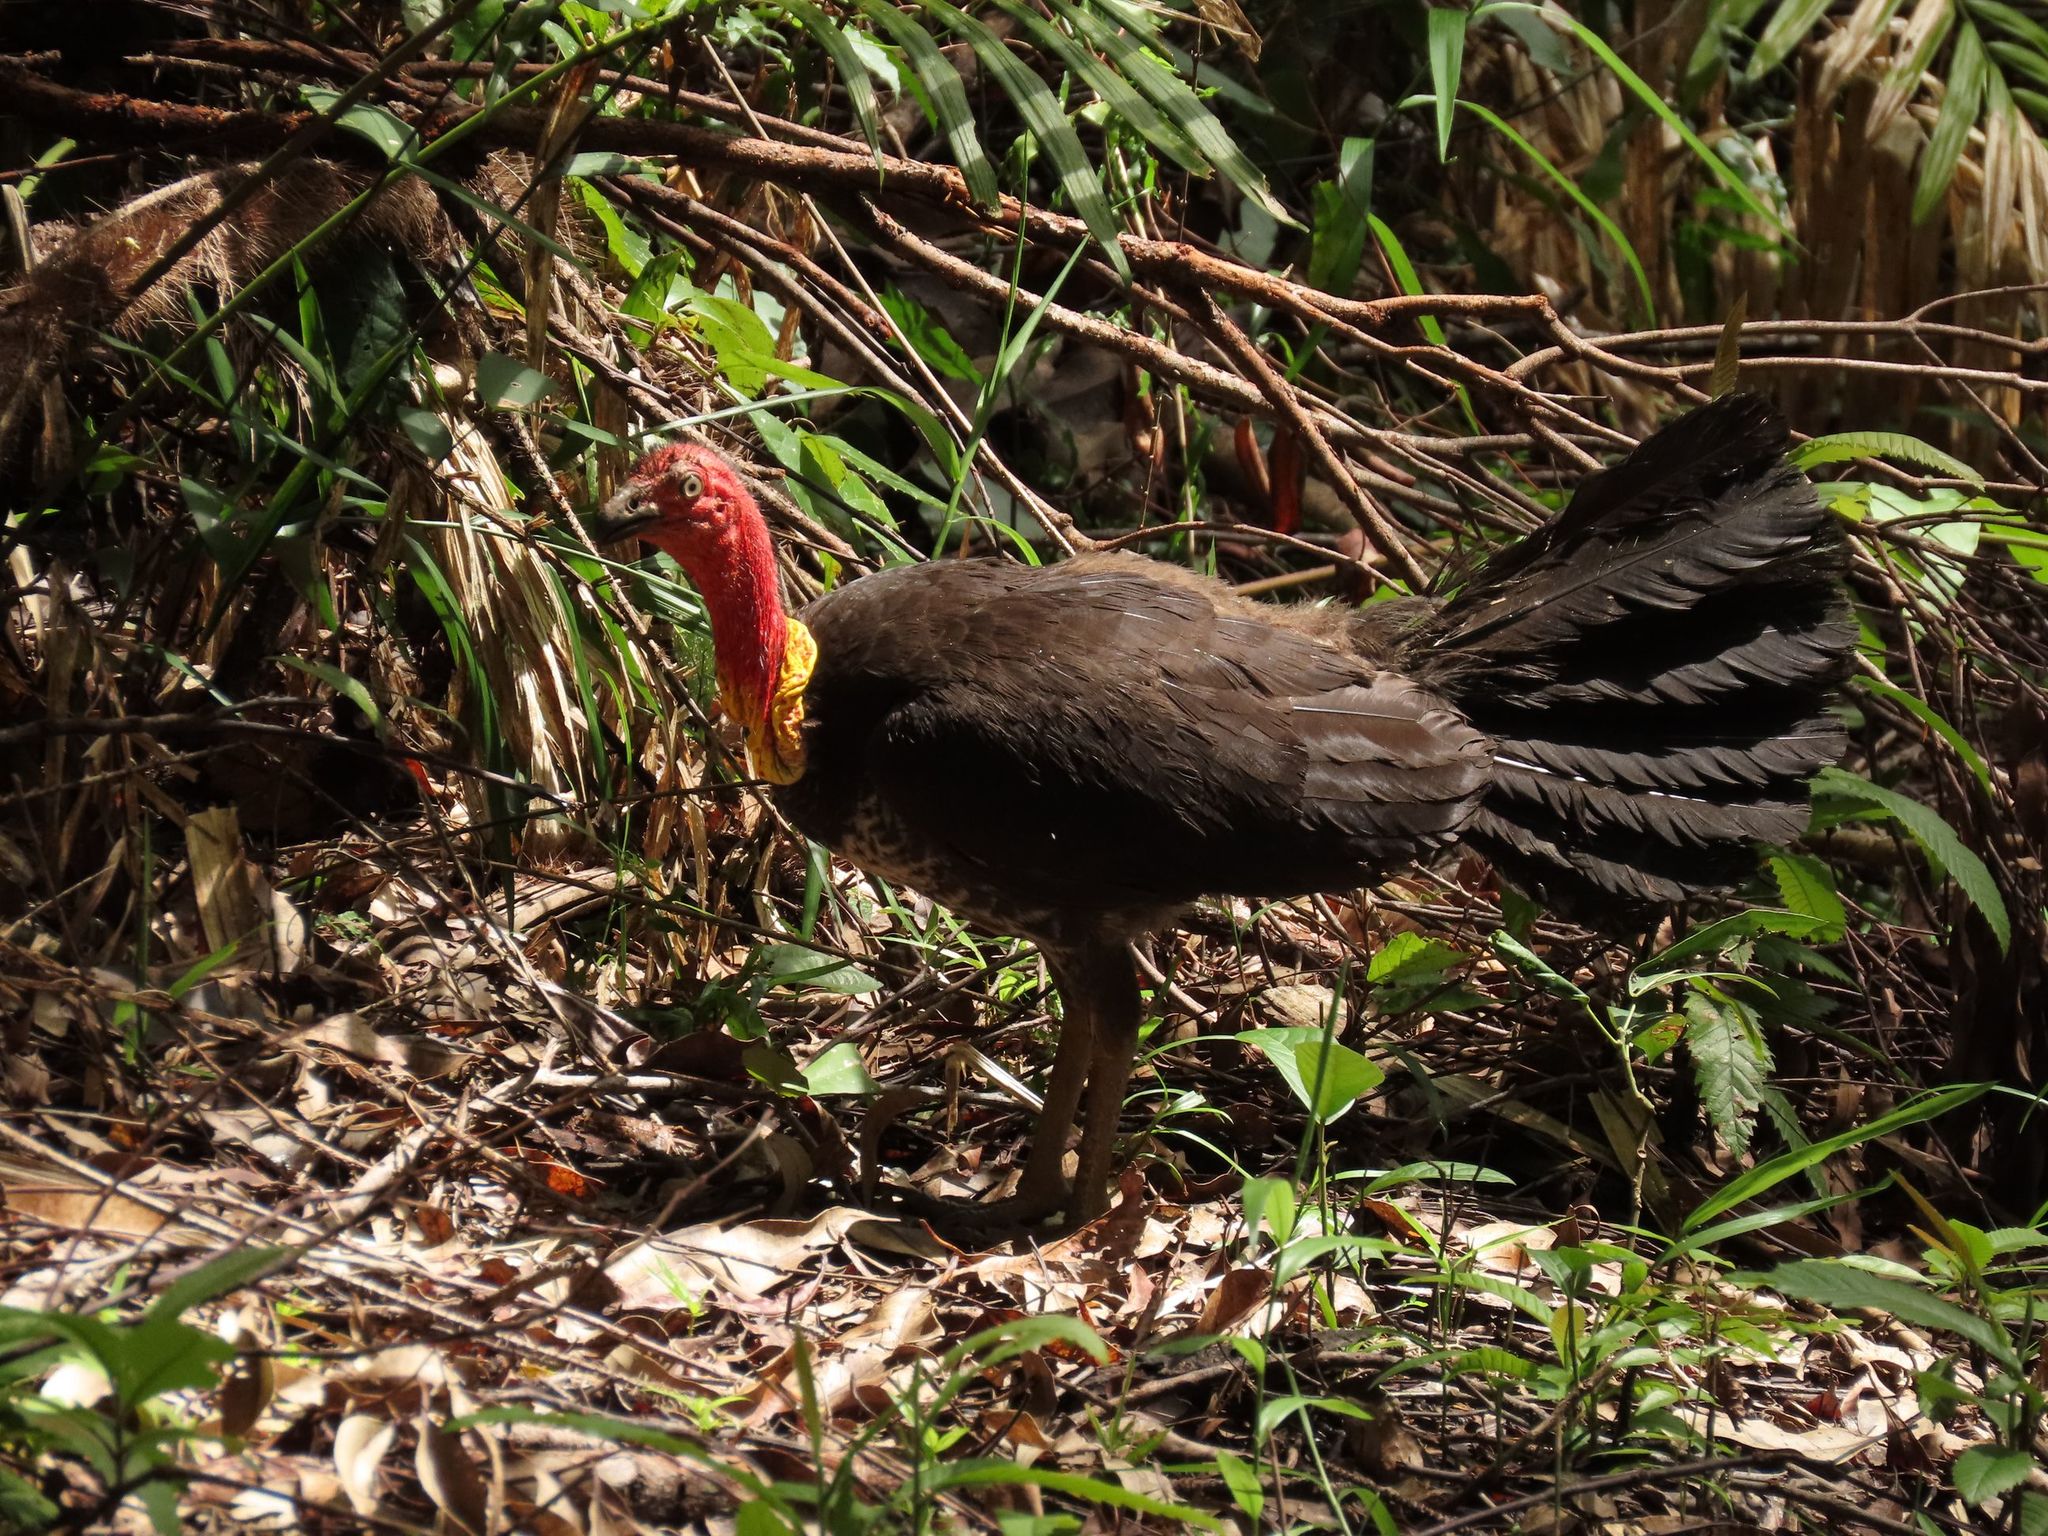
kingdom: Animalia
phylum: Chordata
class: Aves
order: Galliformes
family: Megapodiidae
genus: Alectura
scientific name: Alectura lathami
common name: Australian brushturkey
